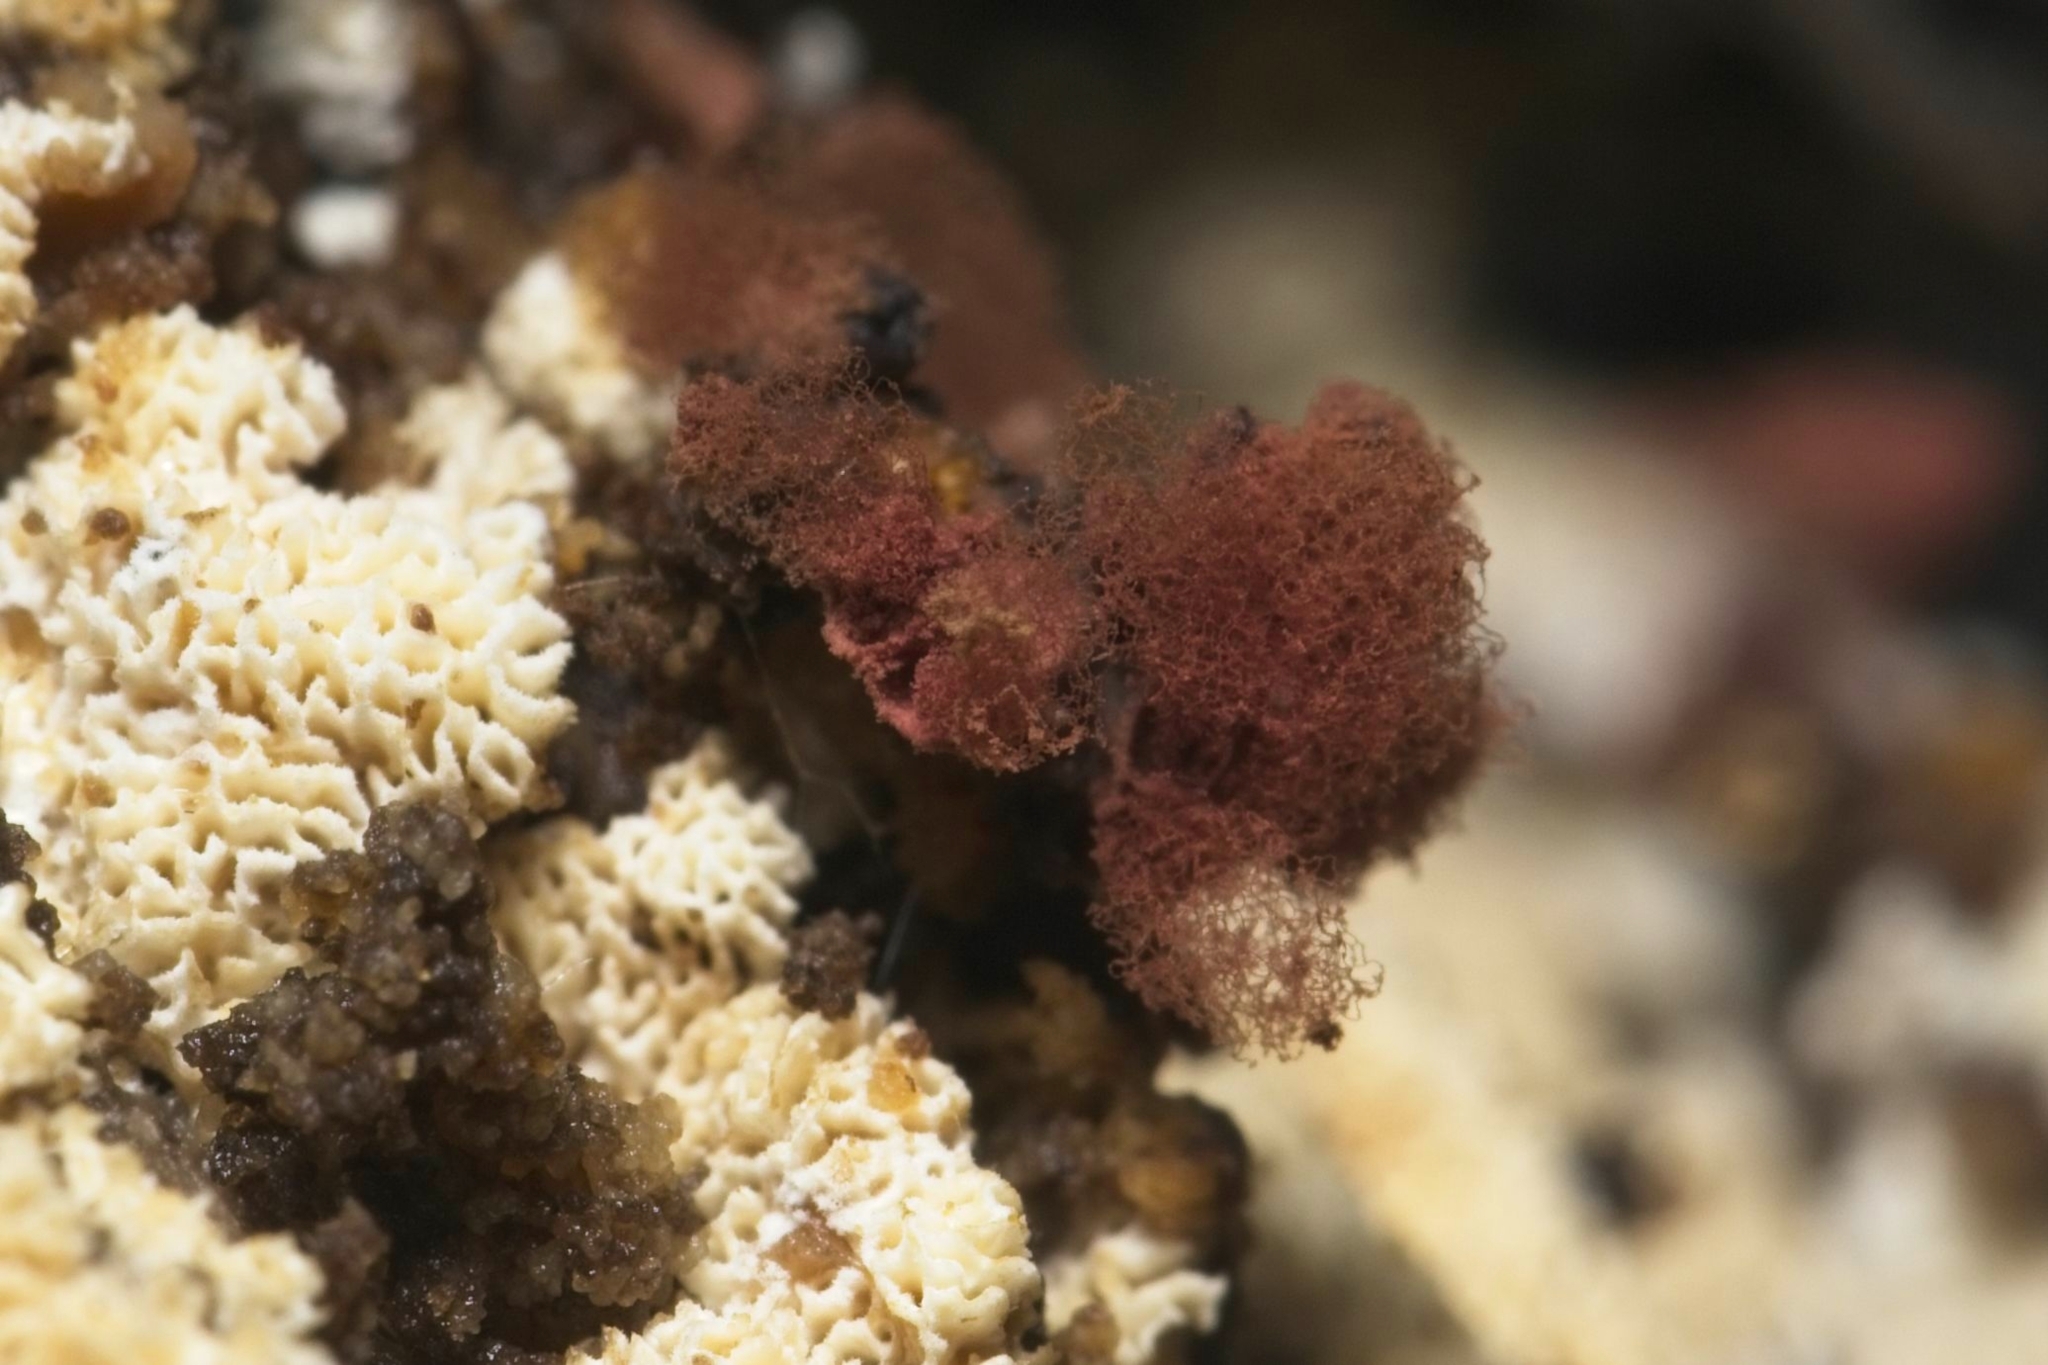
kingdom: Protozoa
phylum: Mycetozoa
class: Myxomycetes
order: Trichiales
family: Arcyriaceae
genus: Arcyria
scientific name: Arcyria denudata
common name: Carnival candy slime mold
